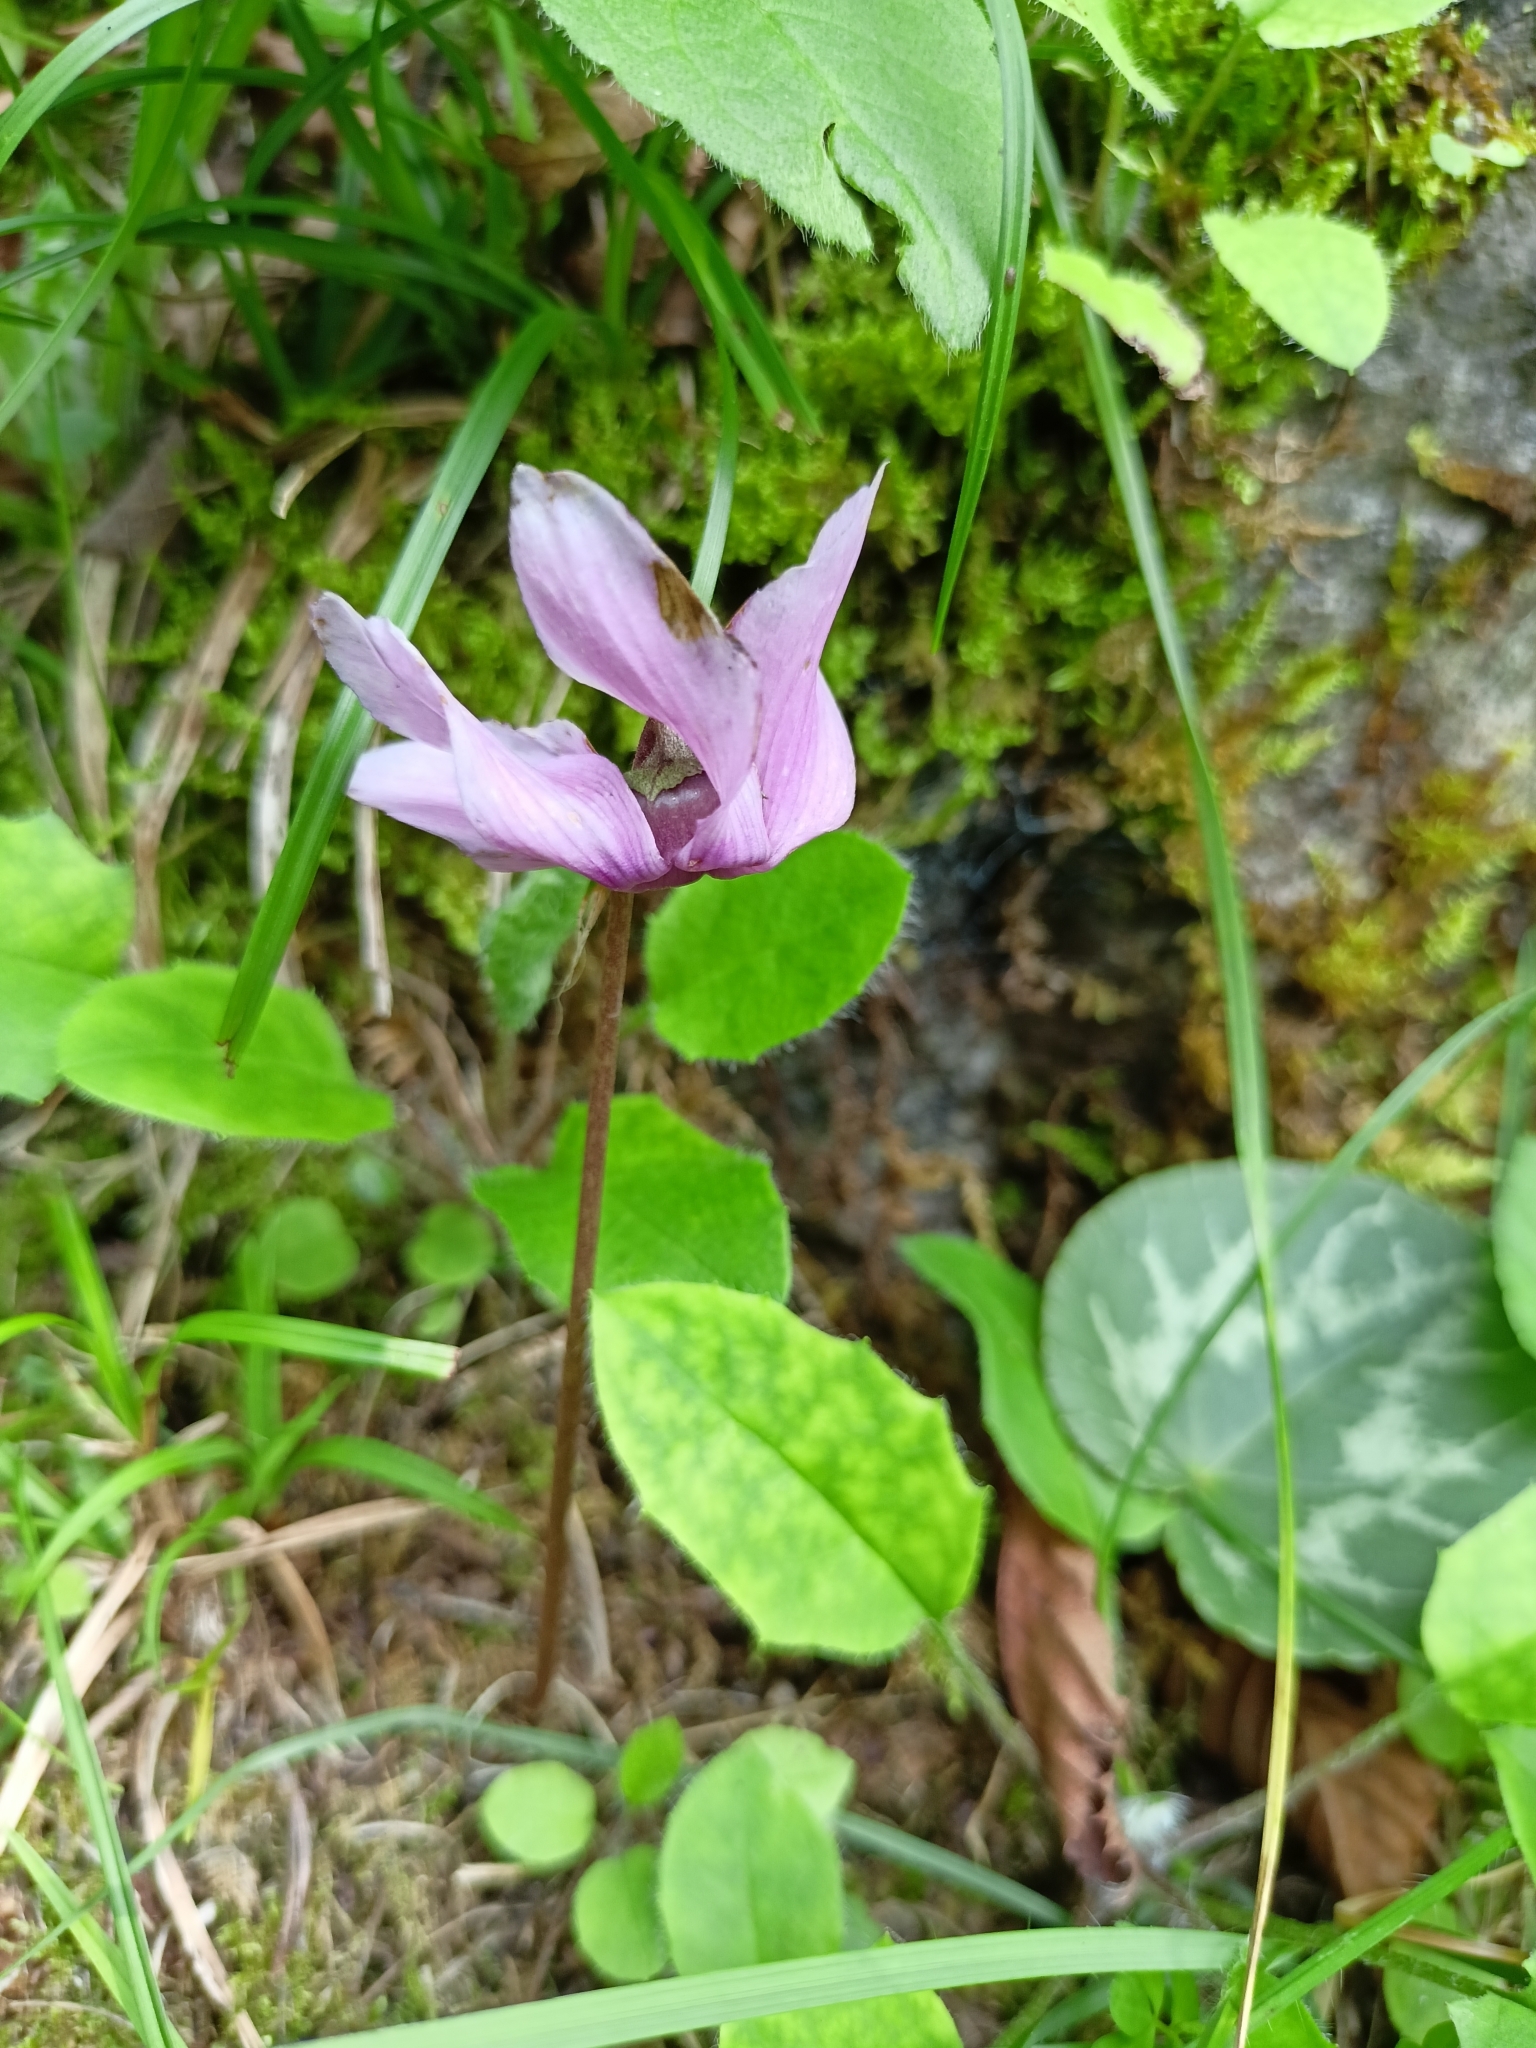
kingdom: Plantae
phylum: Tracheophyta
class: Magnoliopsida
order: Ericales
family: Primulaceae
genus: Cyclamen
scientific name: Cyclamen purpurascens
